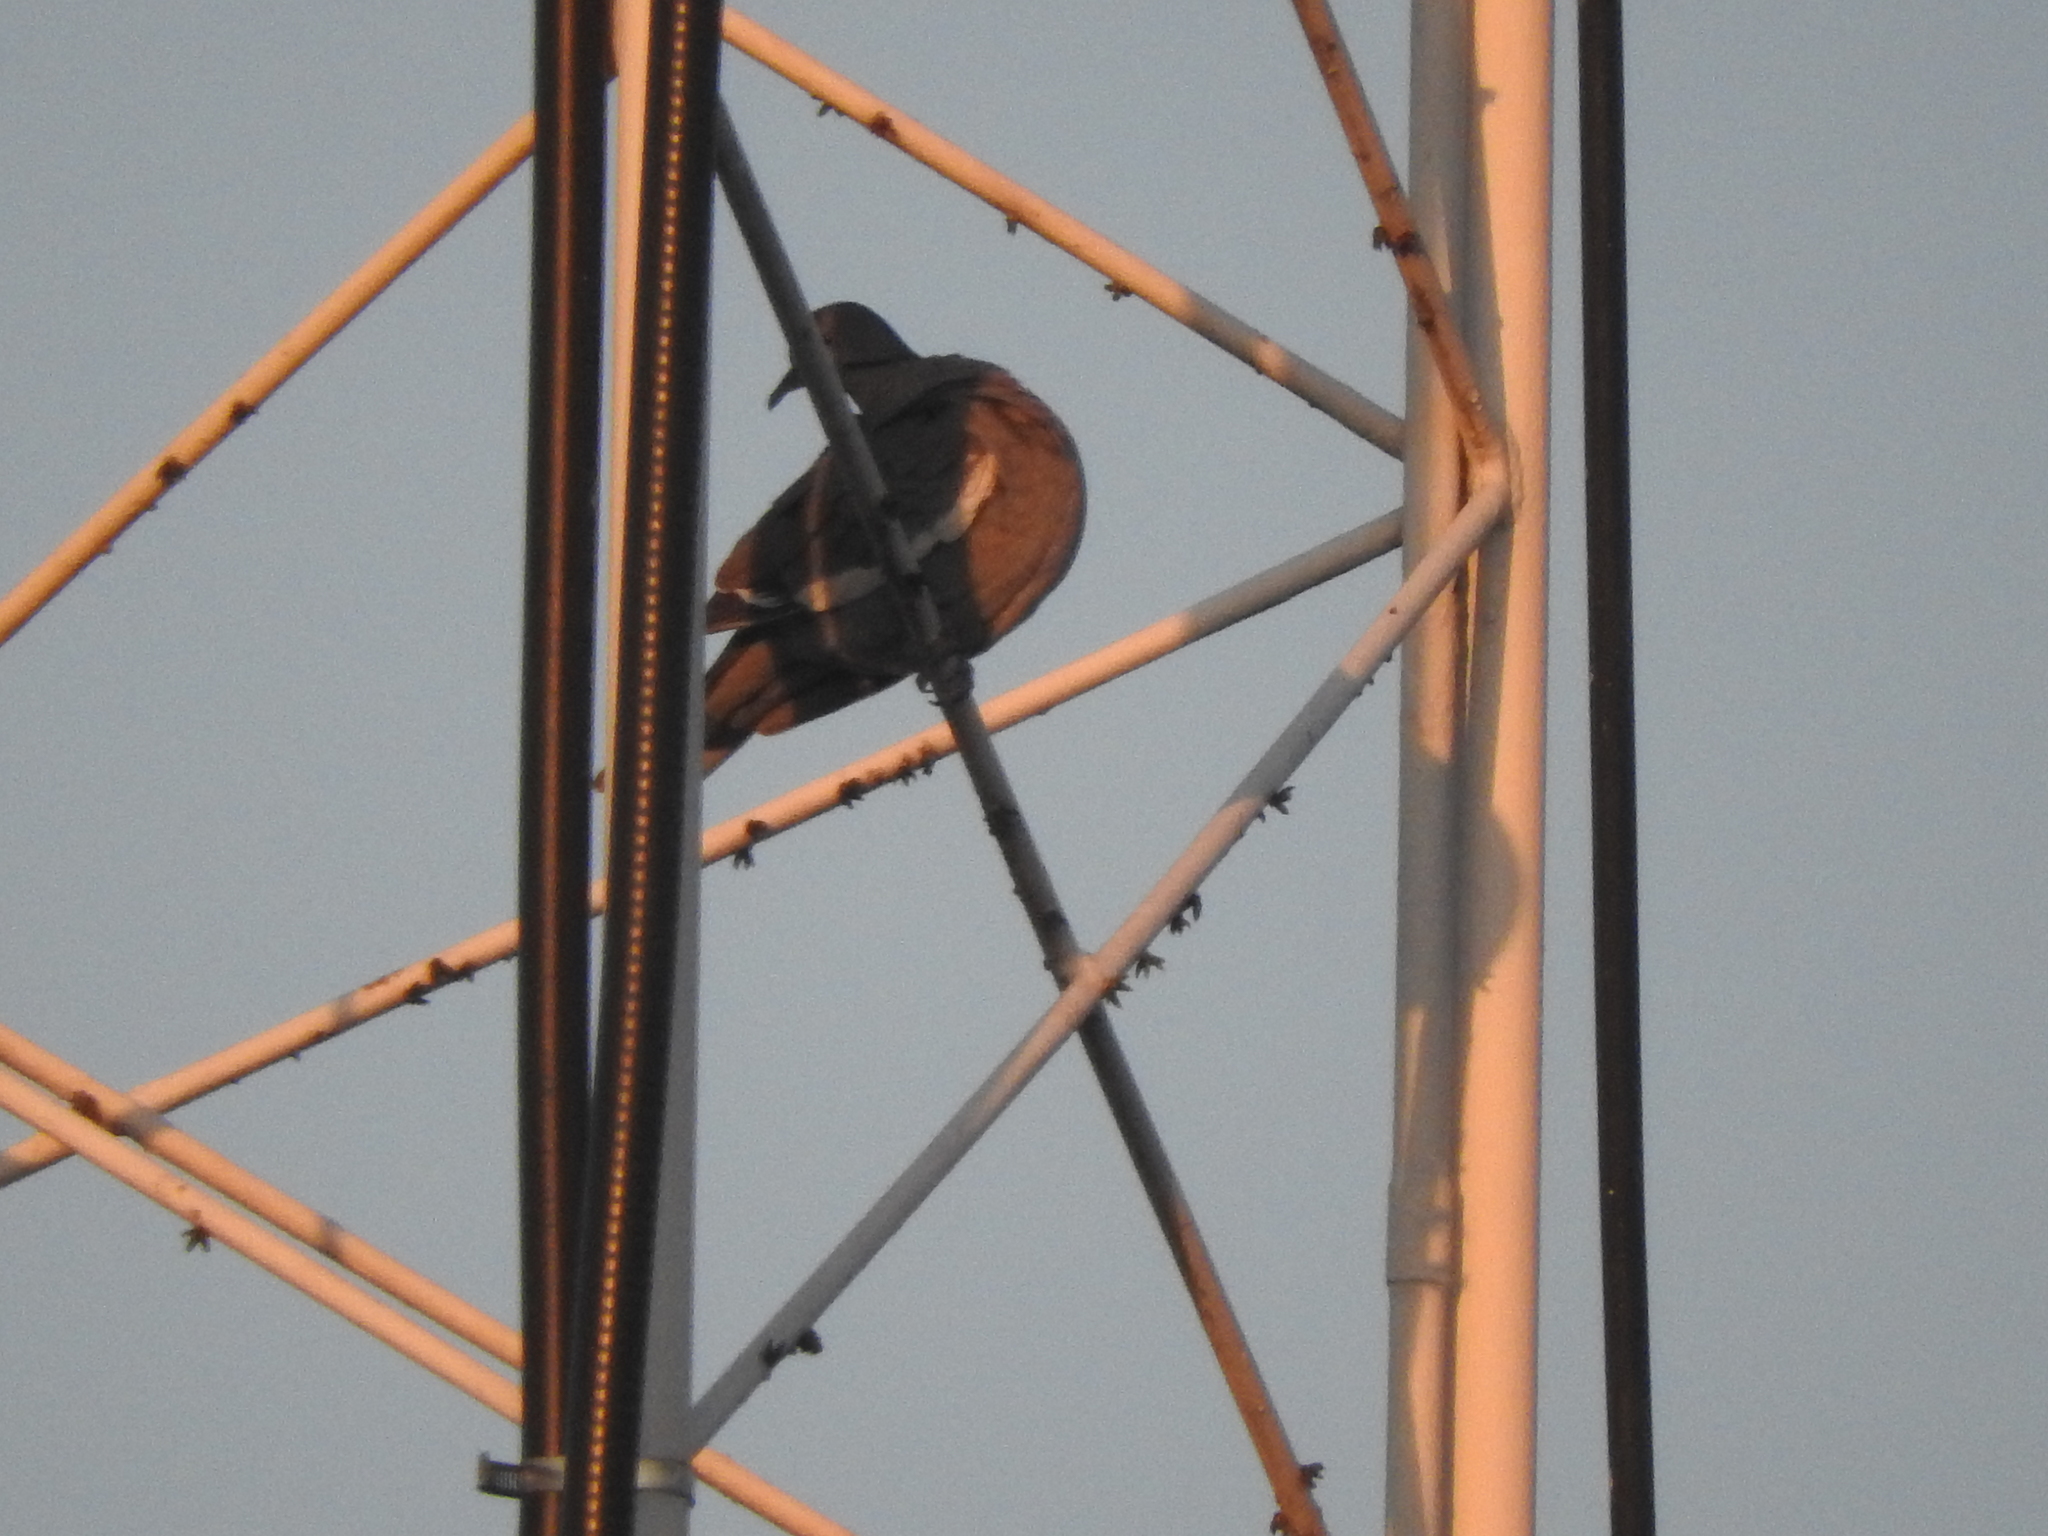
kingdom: Animalia
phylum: Chordata
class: Aves
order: Columbiformes
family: Columbidae
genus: Zenaida
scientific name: Zenaida asiatica
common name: White-winged dove
